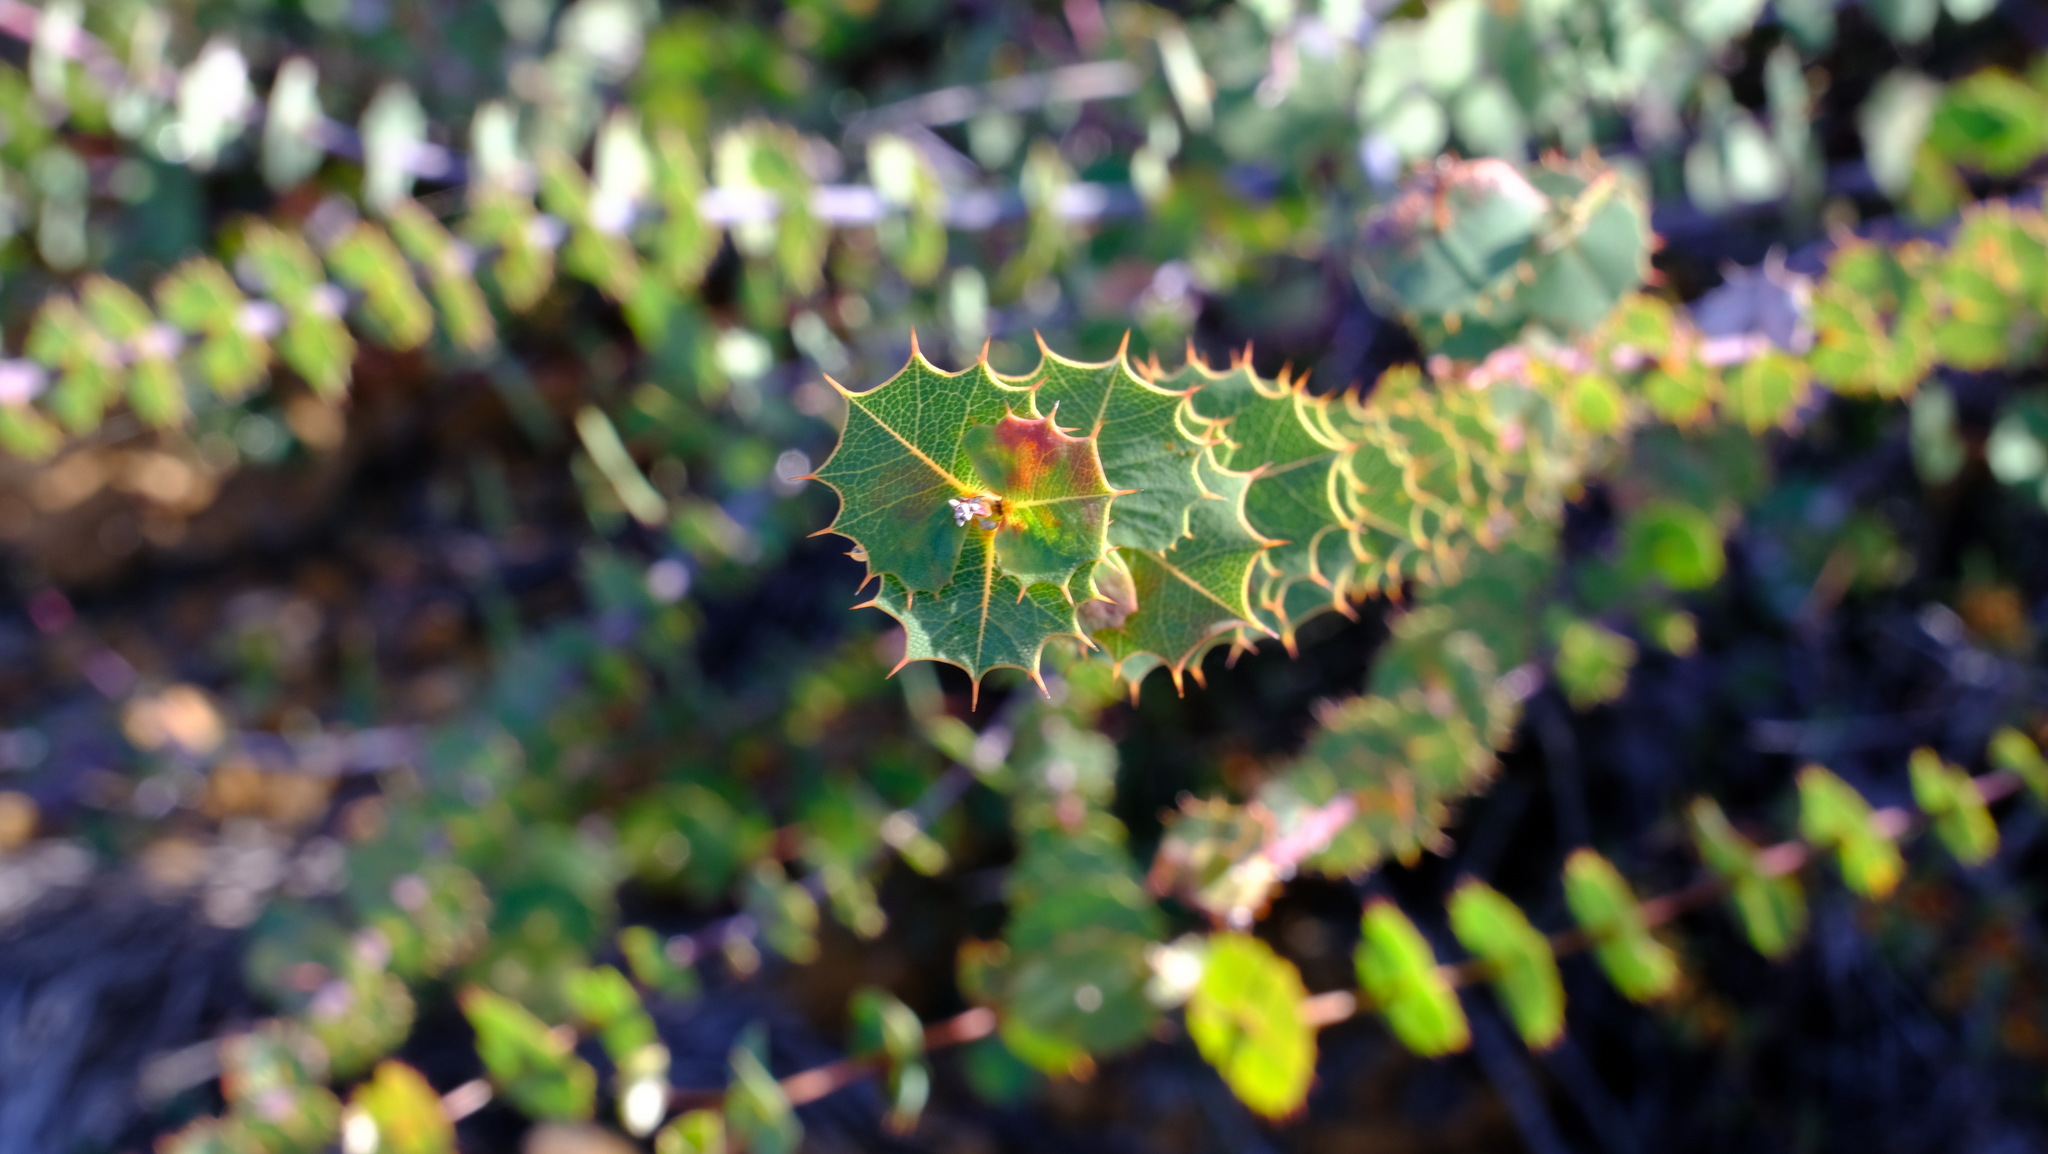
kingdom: Plantae
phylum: Tracheophyta
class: Magnoliopsida
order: Fabales
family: Fabaceae
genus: Gastrolobium
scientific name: Gastrolobium spinosum
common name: Prickly poison
